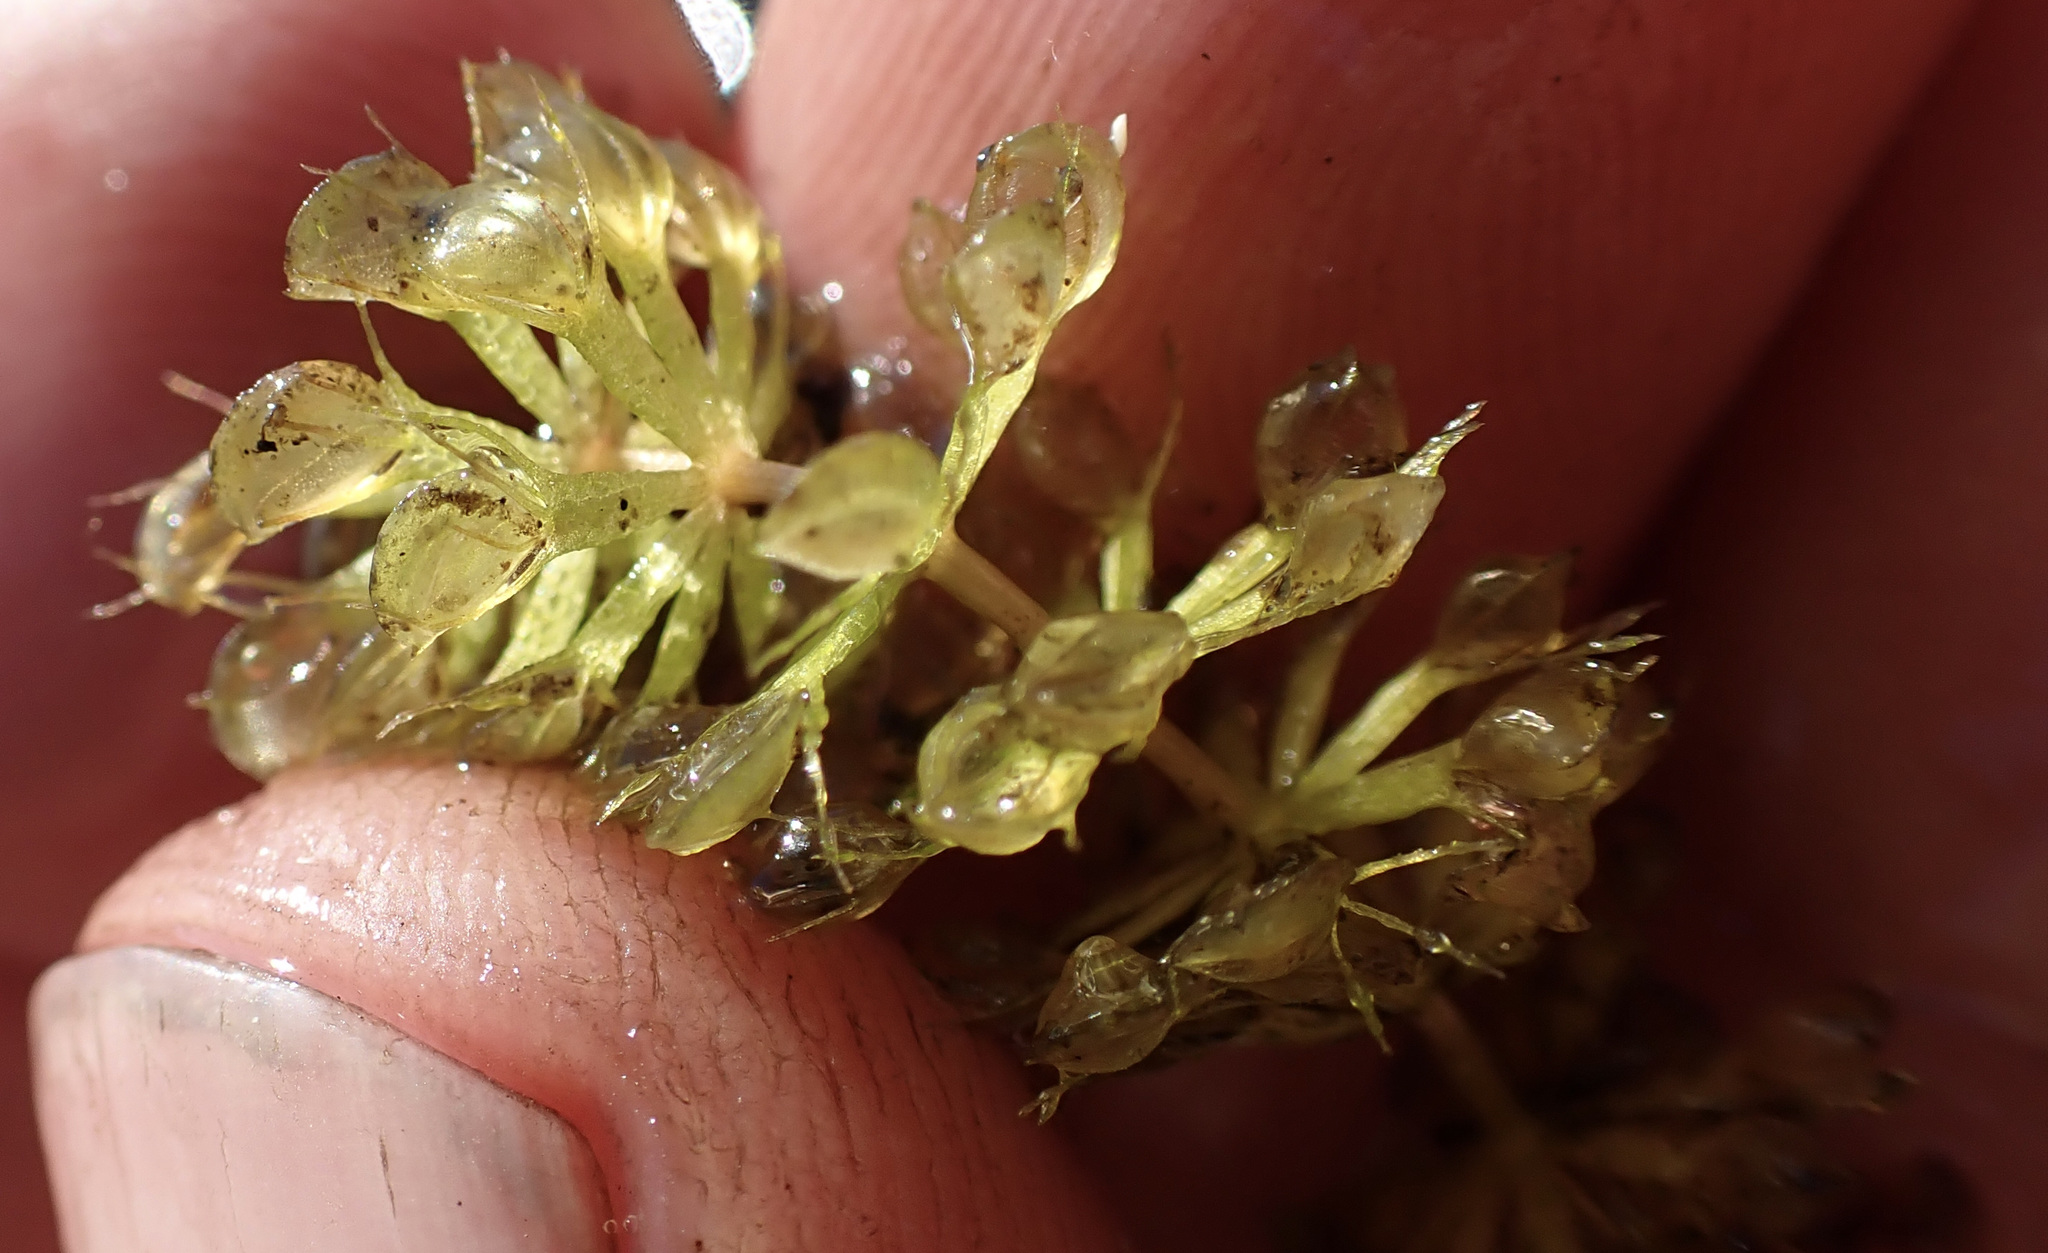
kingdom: Plantae
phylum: Tracheophyta
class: Magnoliopsida
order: Caryophyllales
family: Droseraceae
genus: Aldrovanda
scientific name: Aldrovanda vesiculosa
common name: Waterwheel plant
